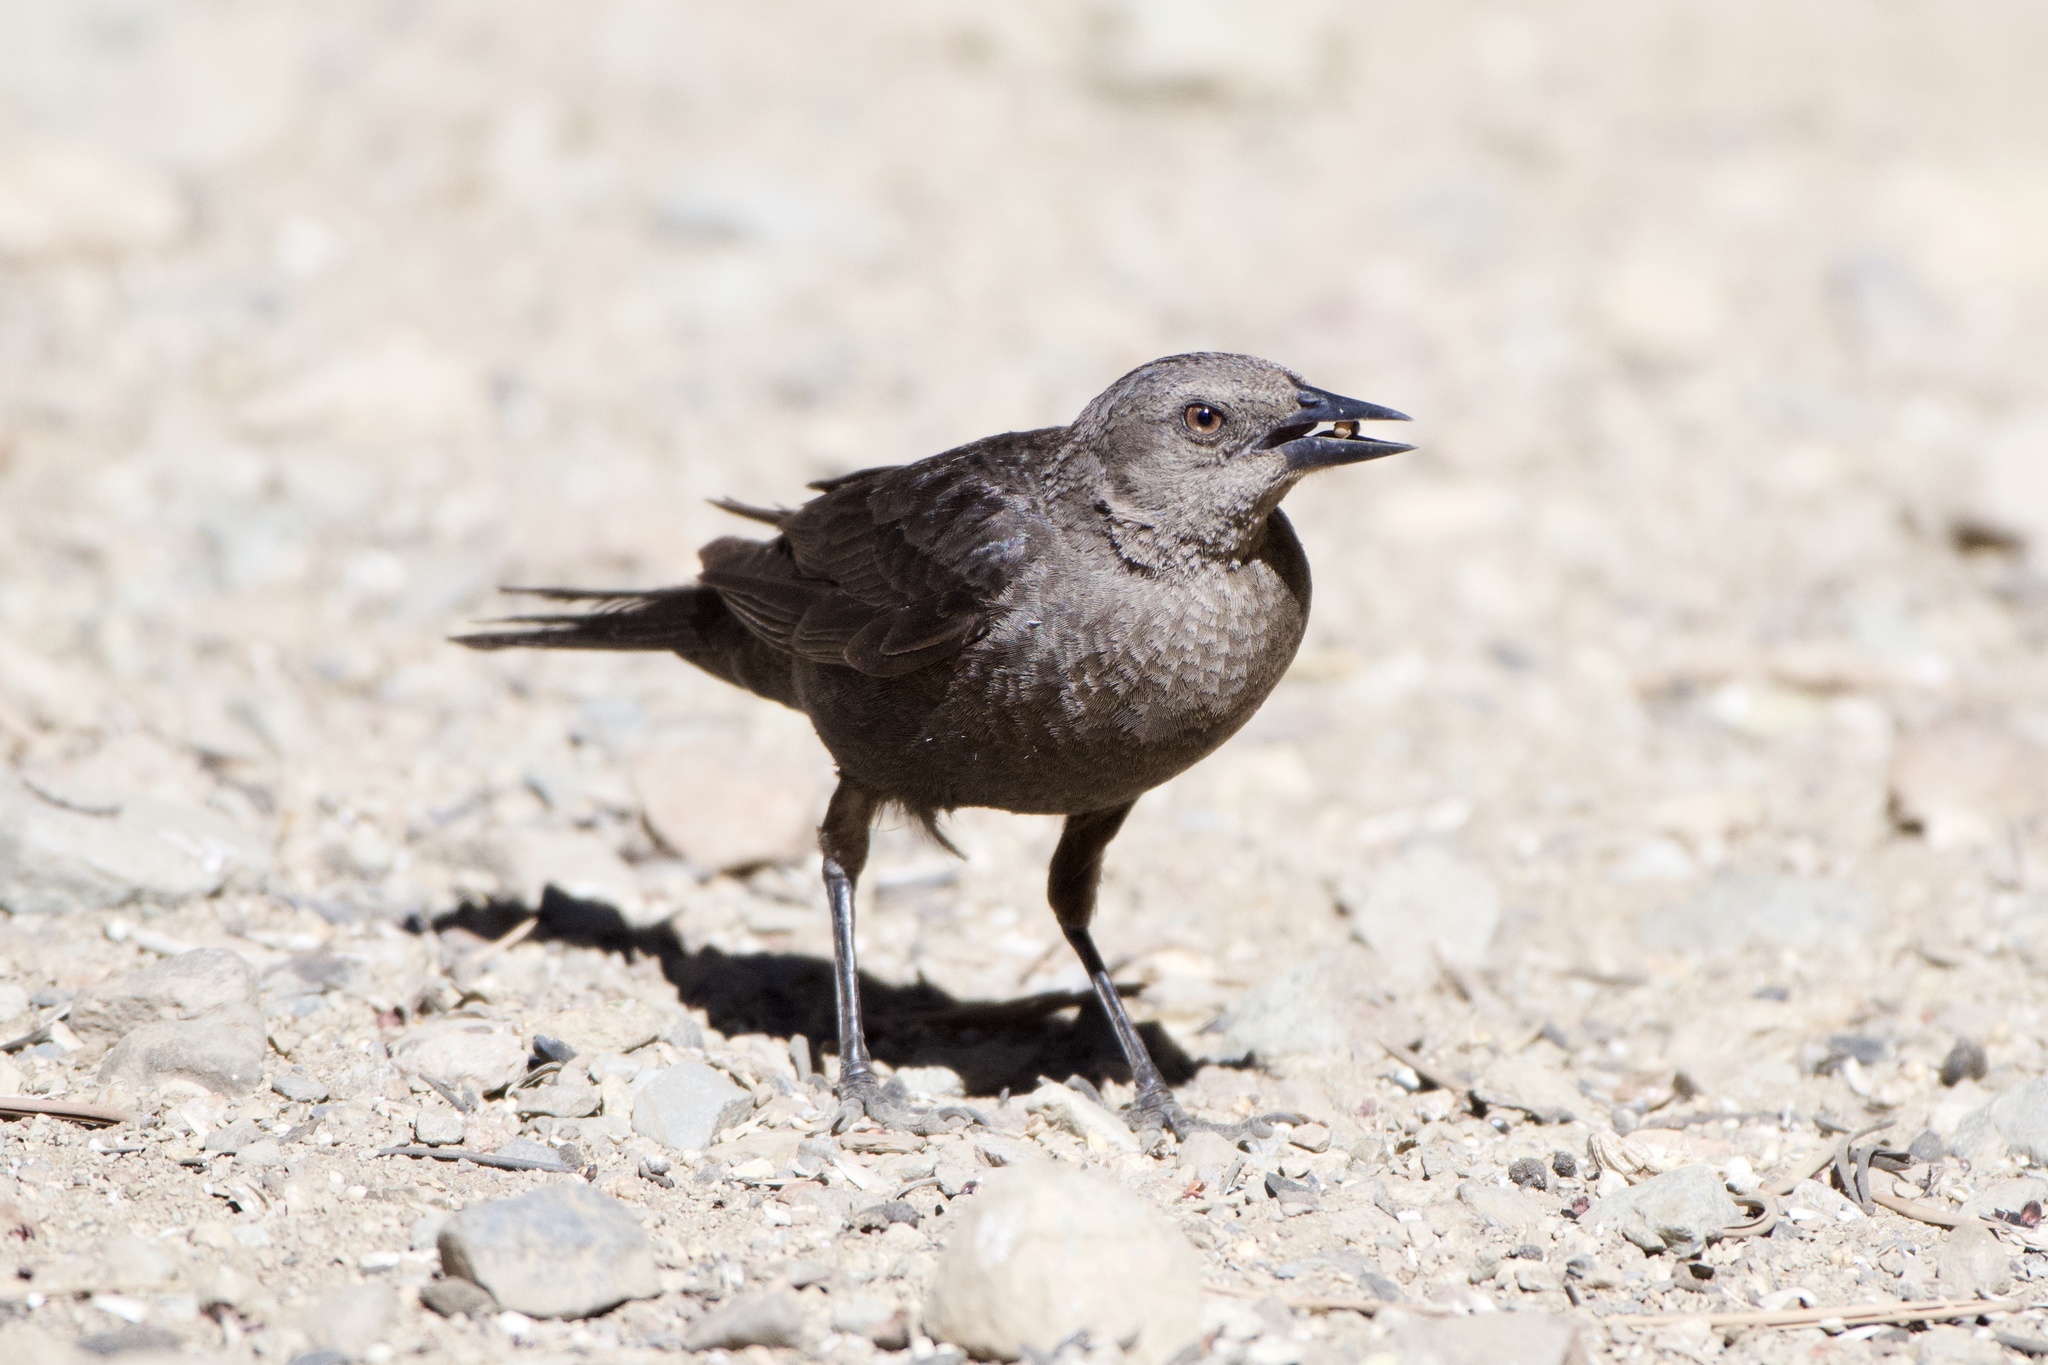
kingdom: Animalia
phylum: Chordata
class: Aves
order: Passeriformes
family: Icteridae
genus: Euphagus
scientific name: Euphagus cyanocephalus
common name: Brewer's blackbird
